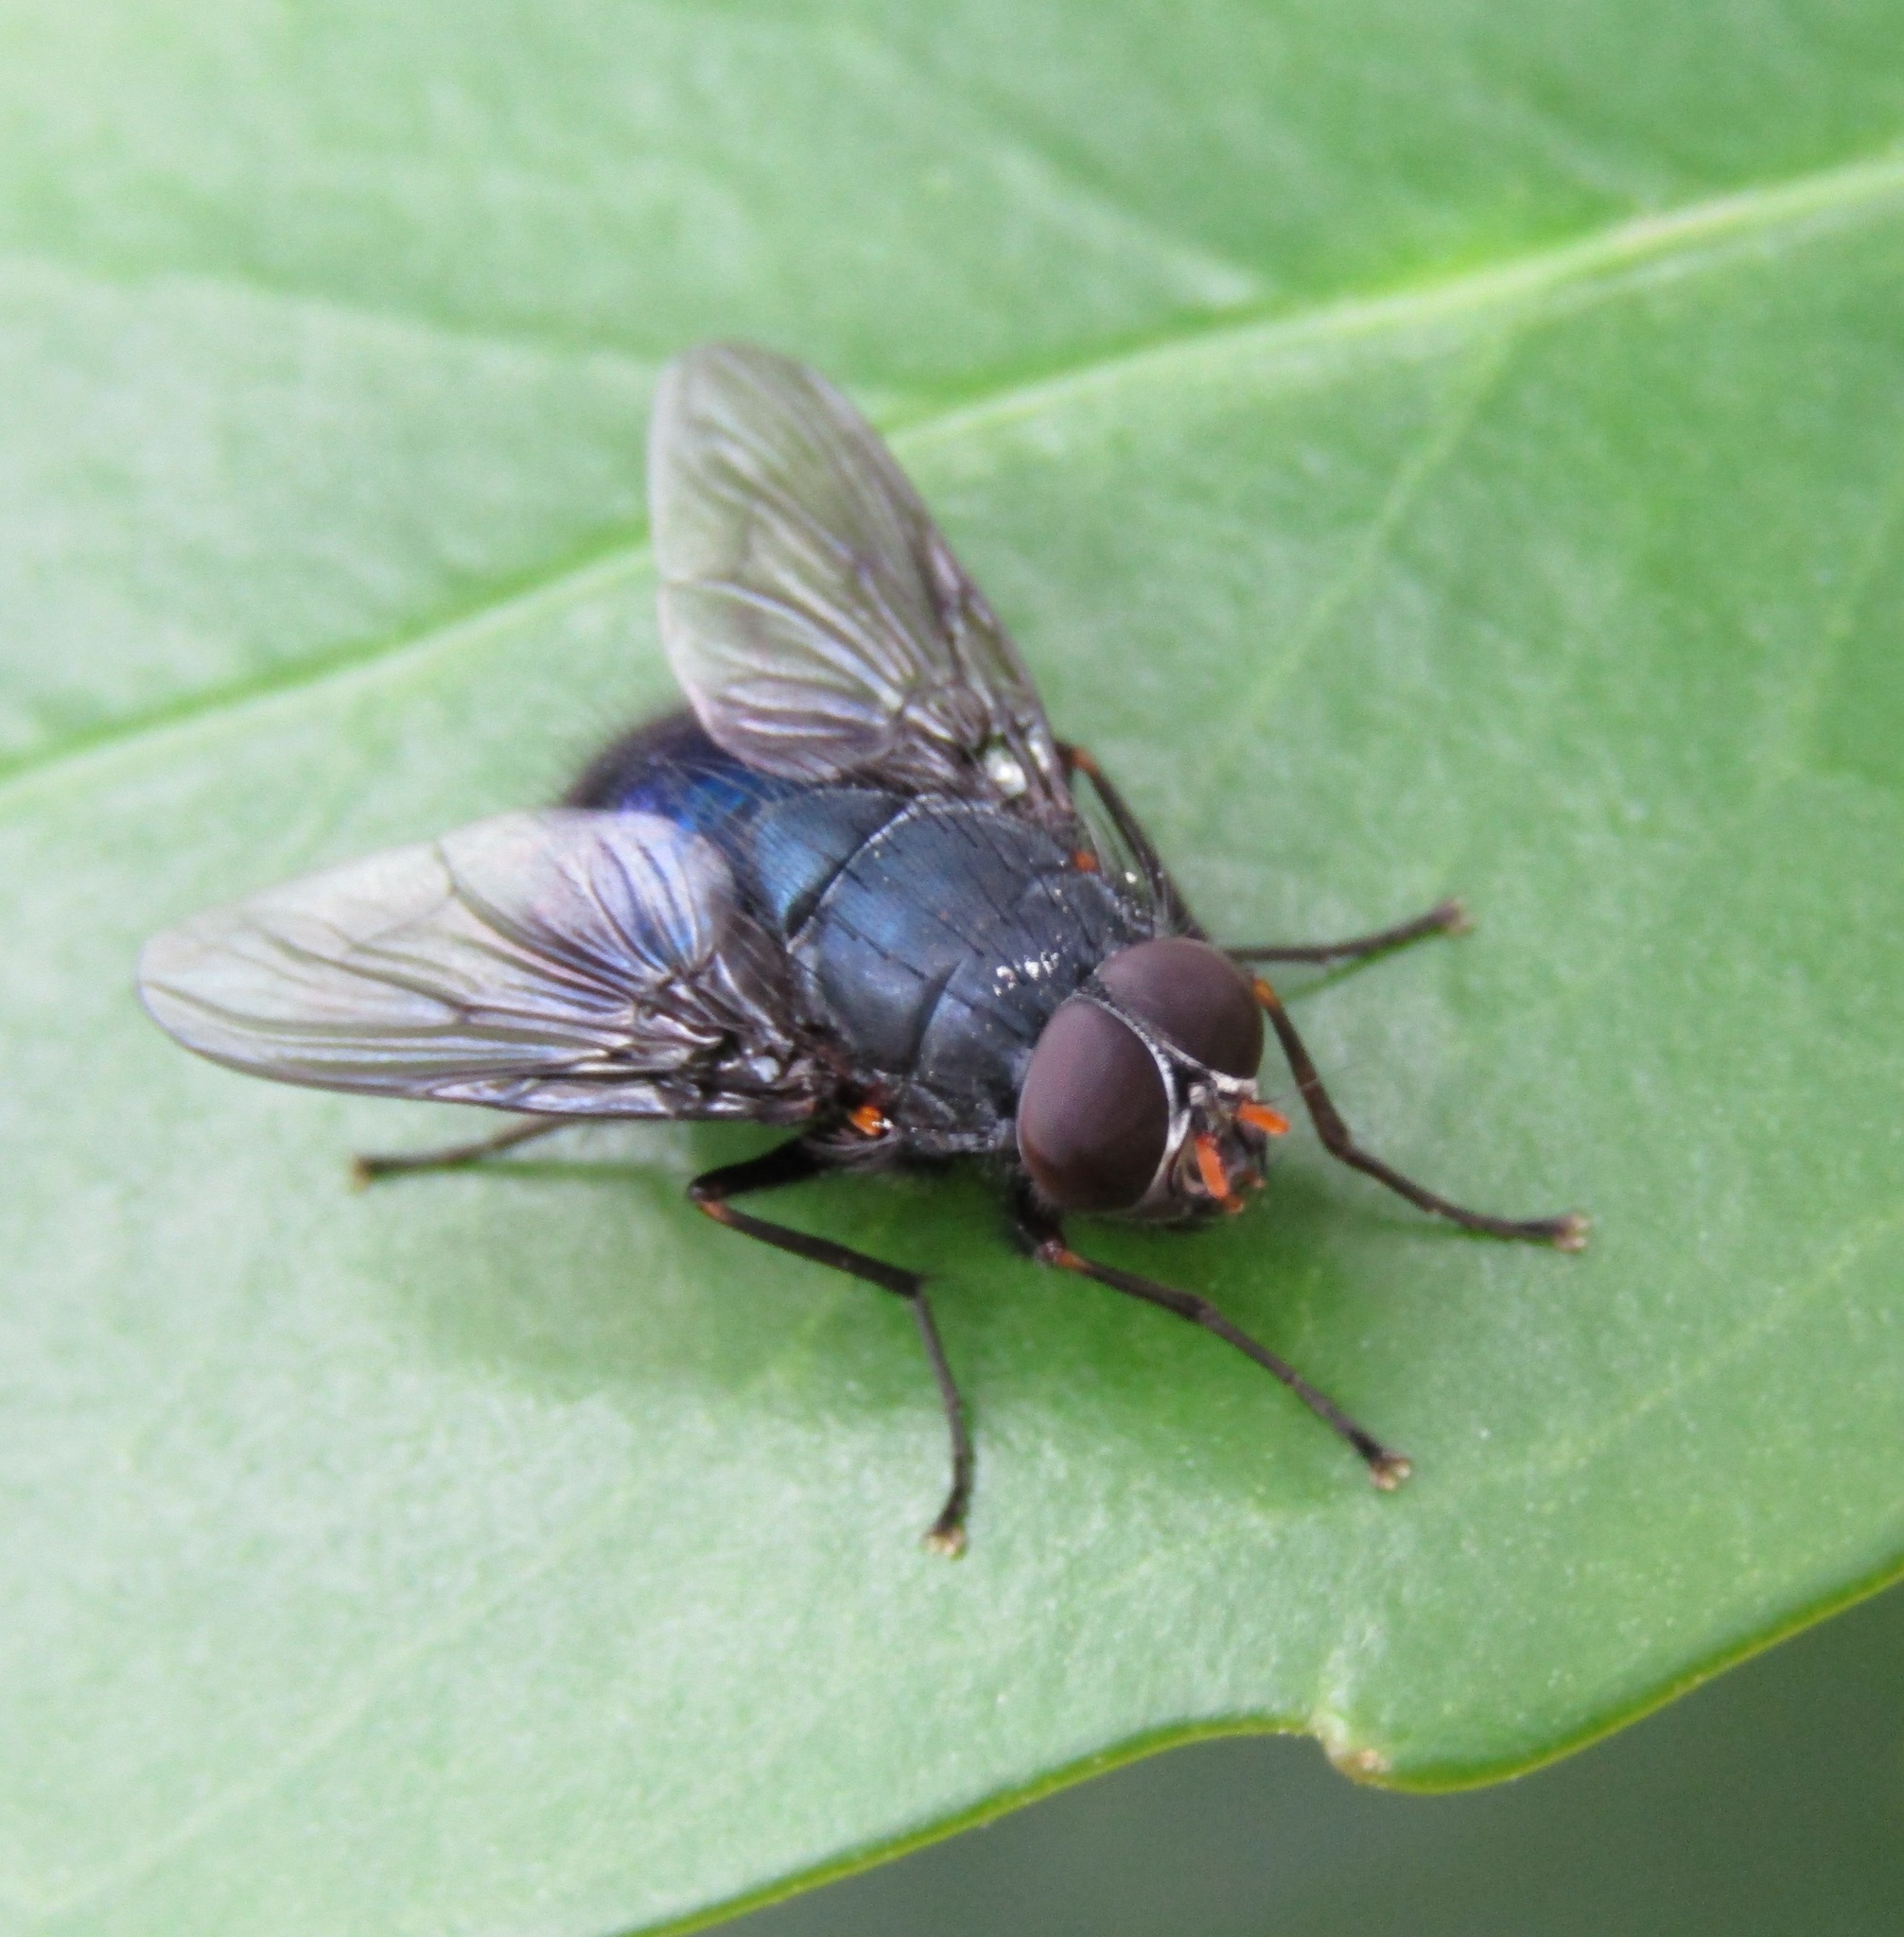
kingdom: Animalia
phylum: Arthropoda
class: Insecta
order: Diptera
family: Muscidae
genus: Calliphoroides
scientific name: Calliphoroides antennatis
